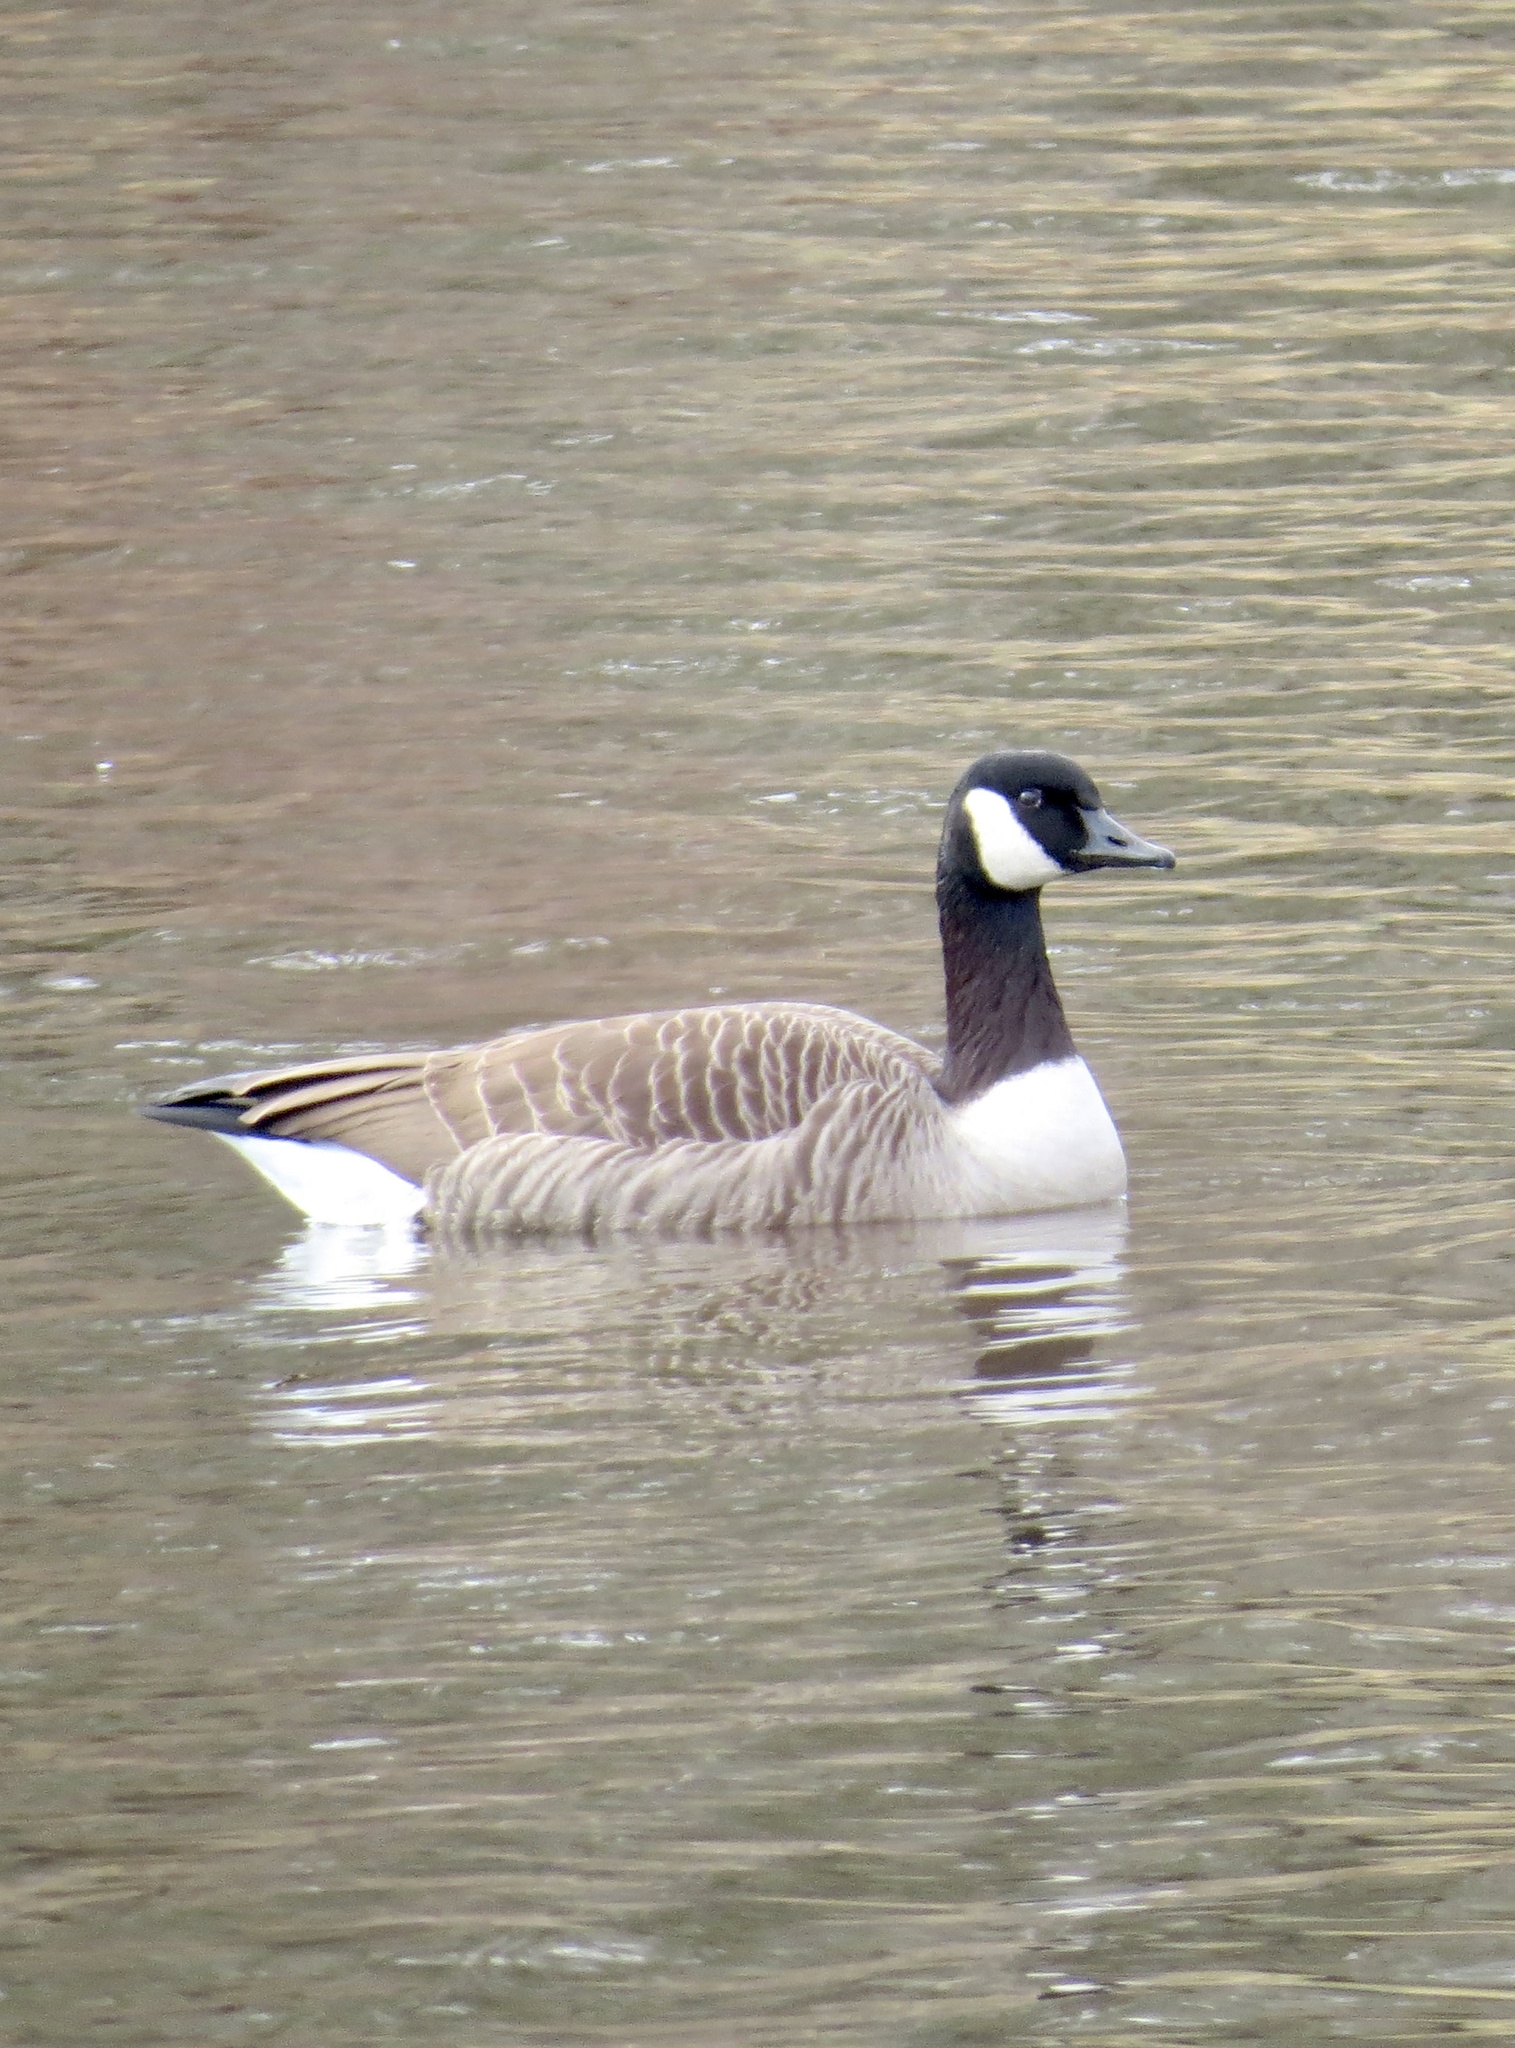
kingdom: Animalia
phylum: Chordata
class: Aves
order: Anseriformes
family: Anatidae
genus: Branta
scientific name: Branta canadensis
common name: Canada goose
